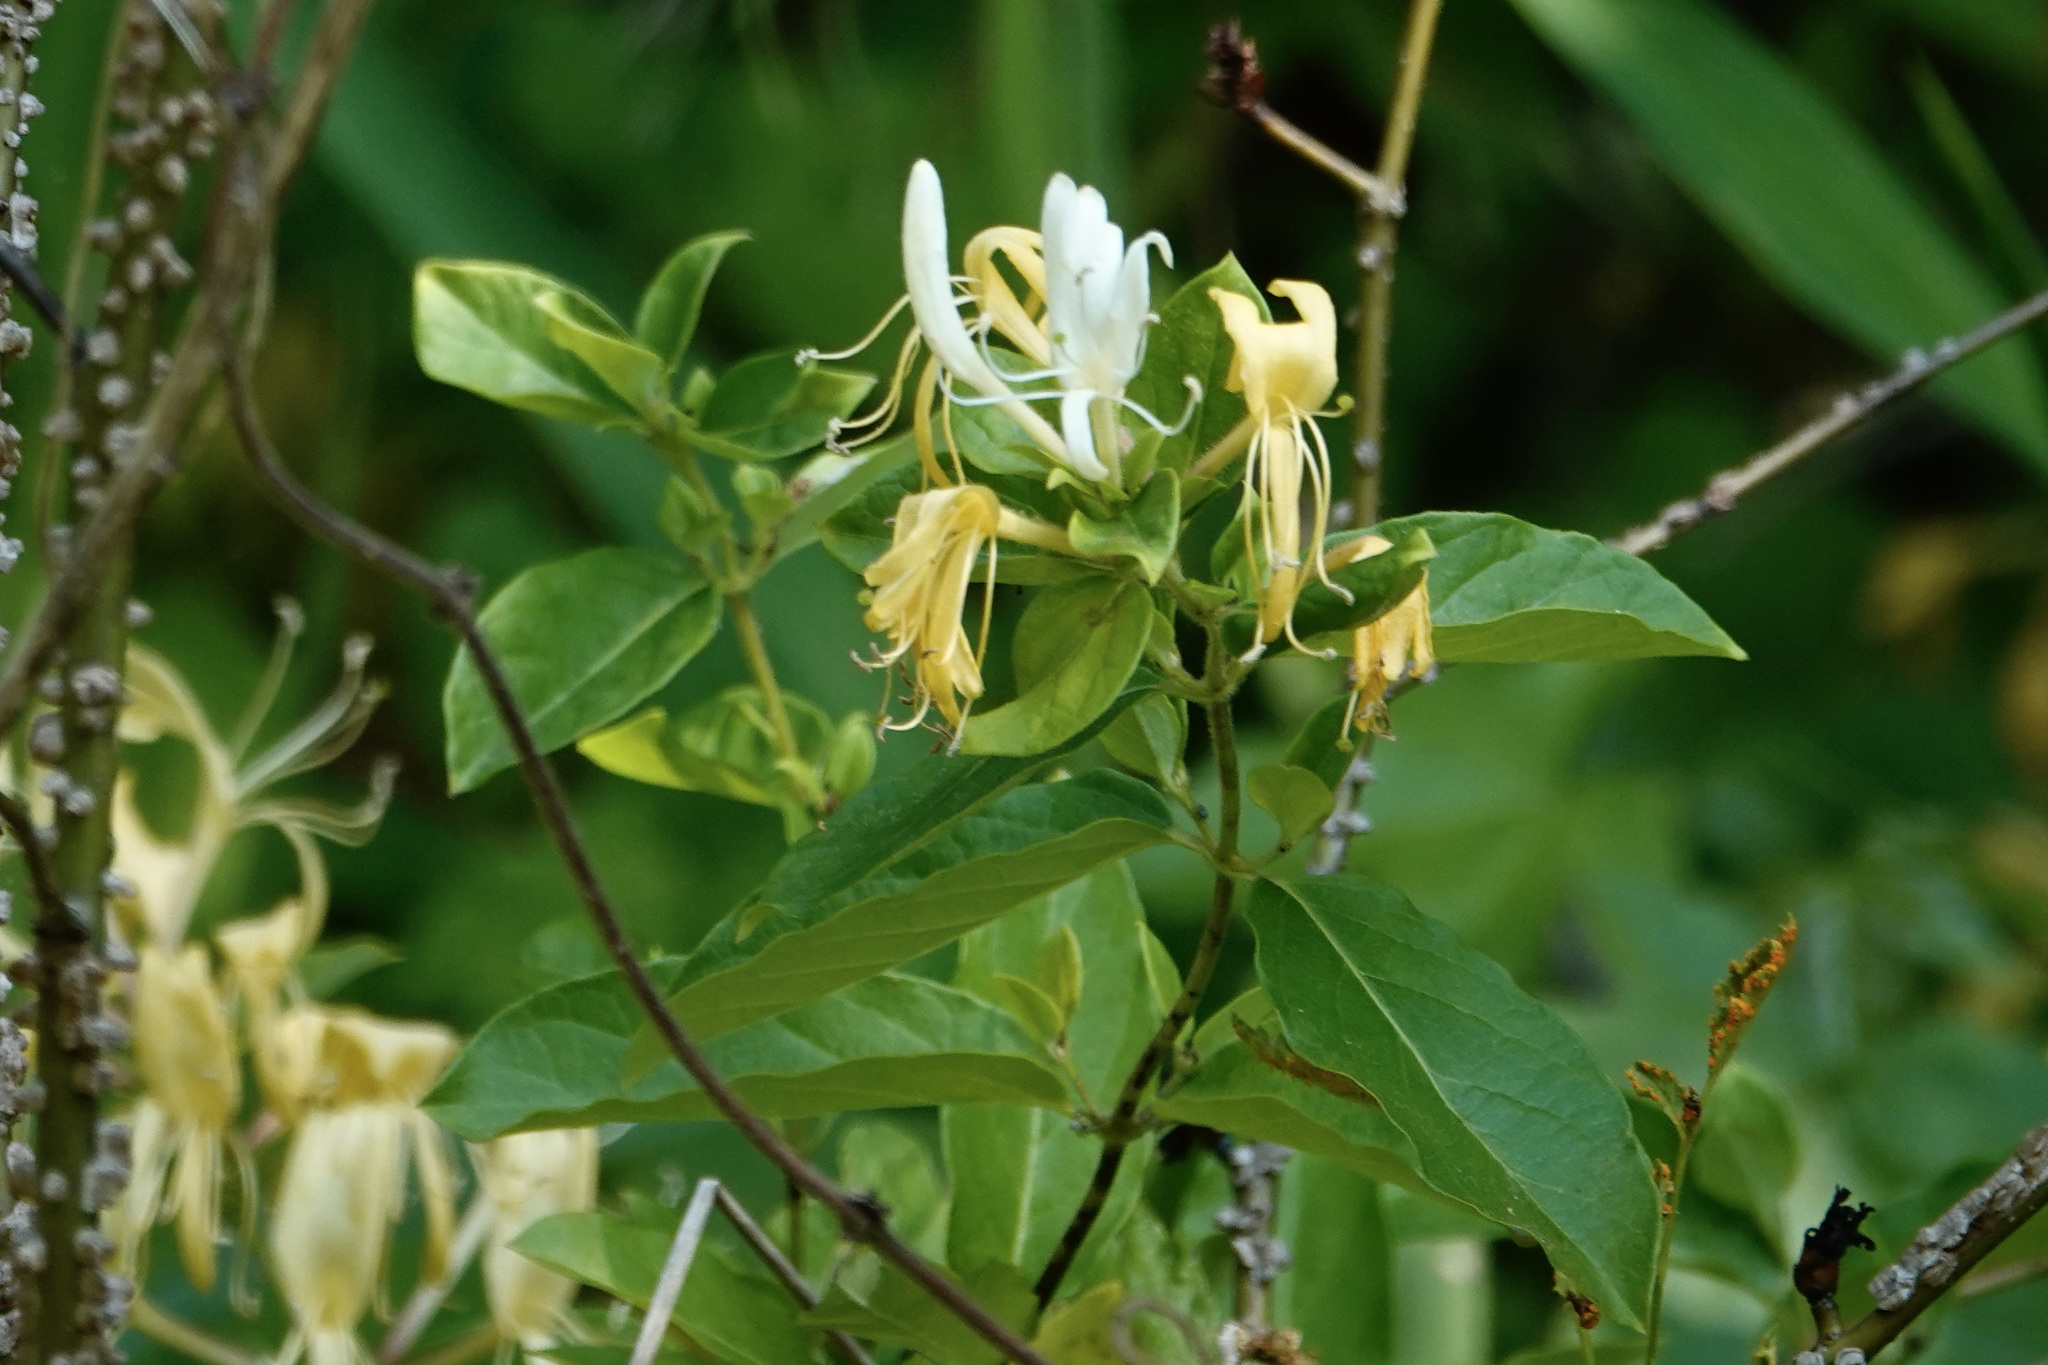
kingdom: Plantae
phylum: Tracheophyta
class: Magnoliopsida
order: Dipsacales
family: Caprifoliaceae
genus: Lonicera
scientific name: Lonicera japonica
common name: Japanese honeysuckle
